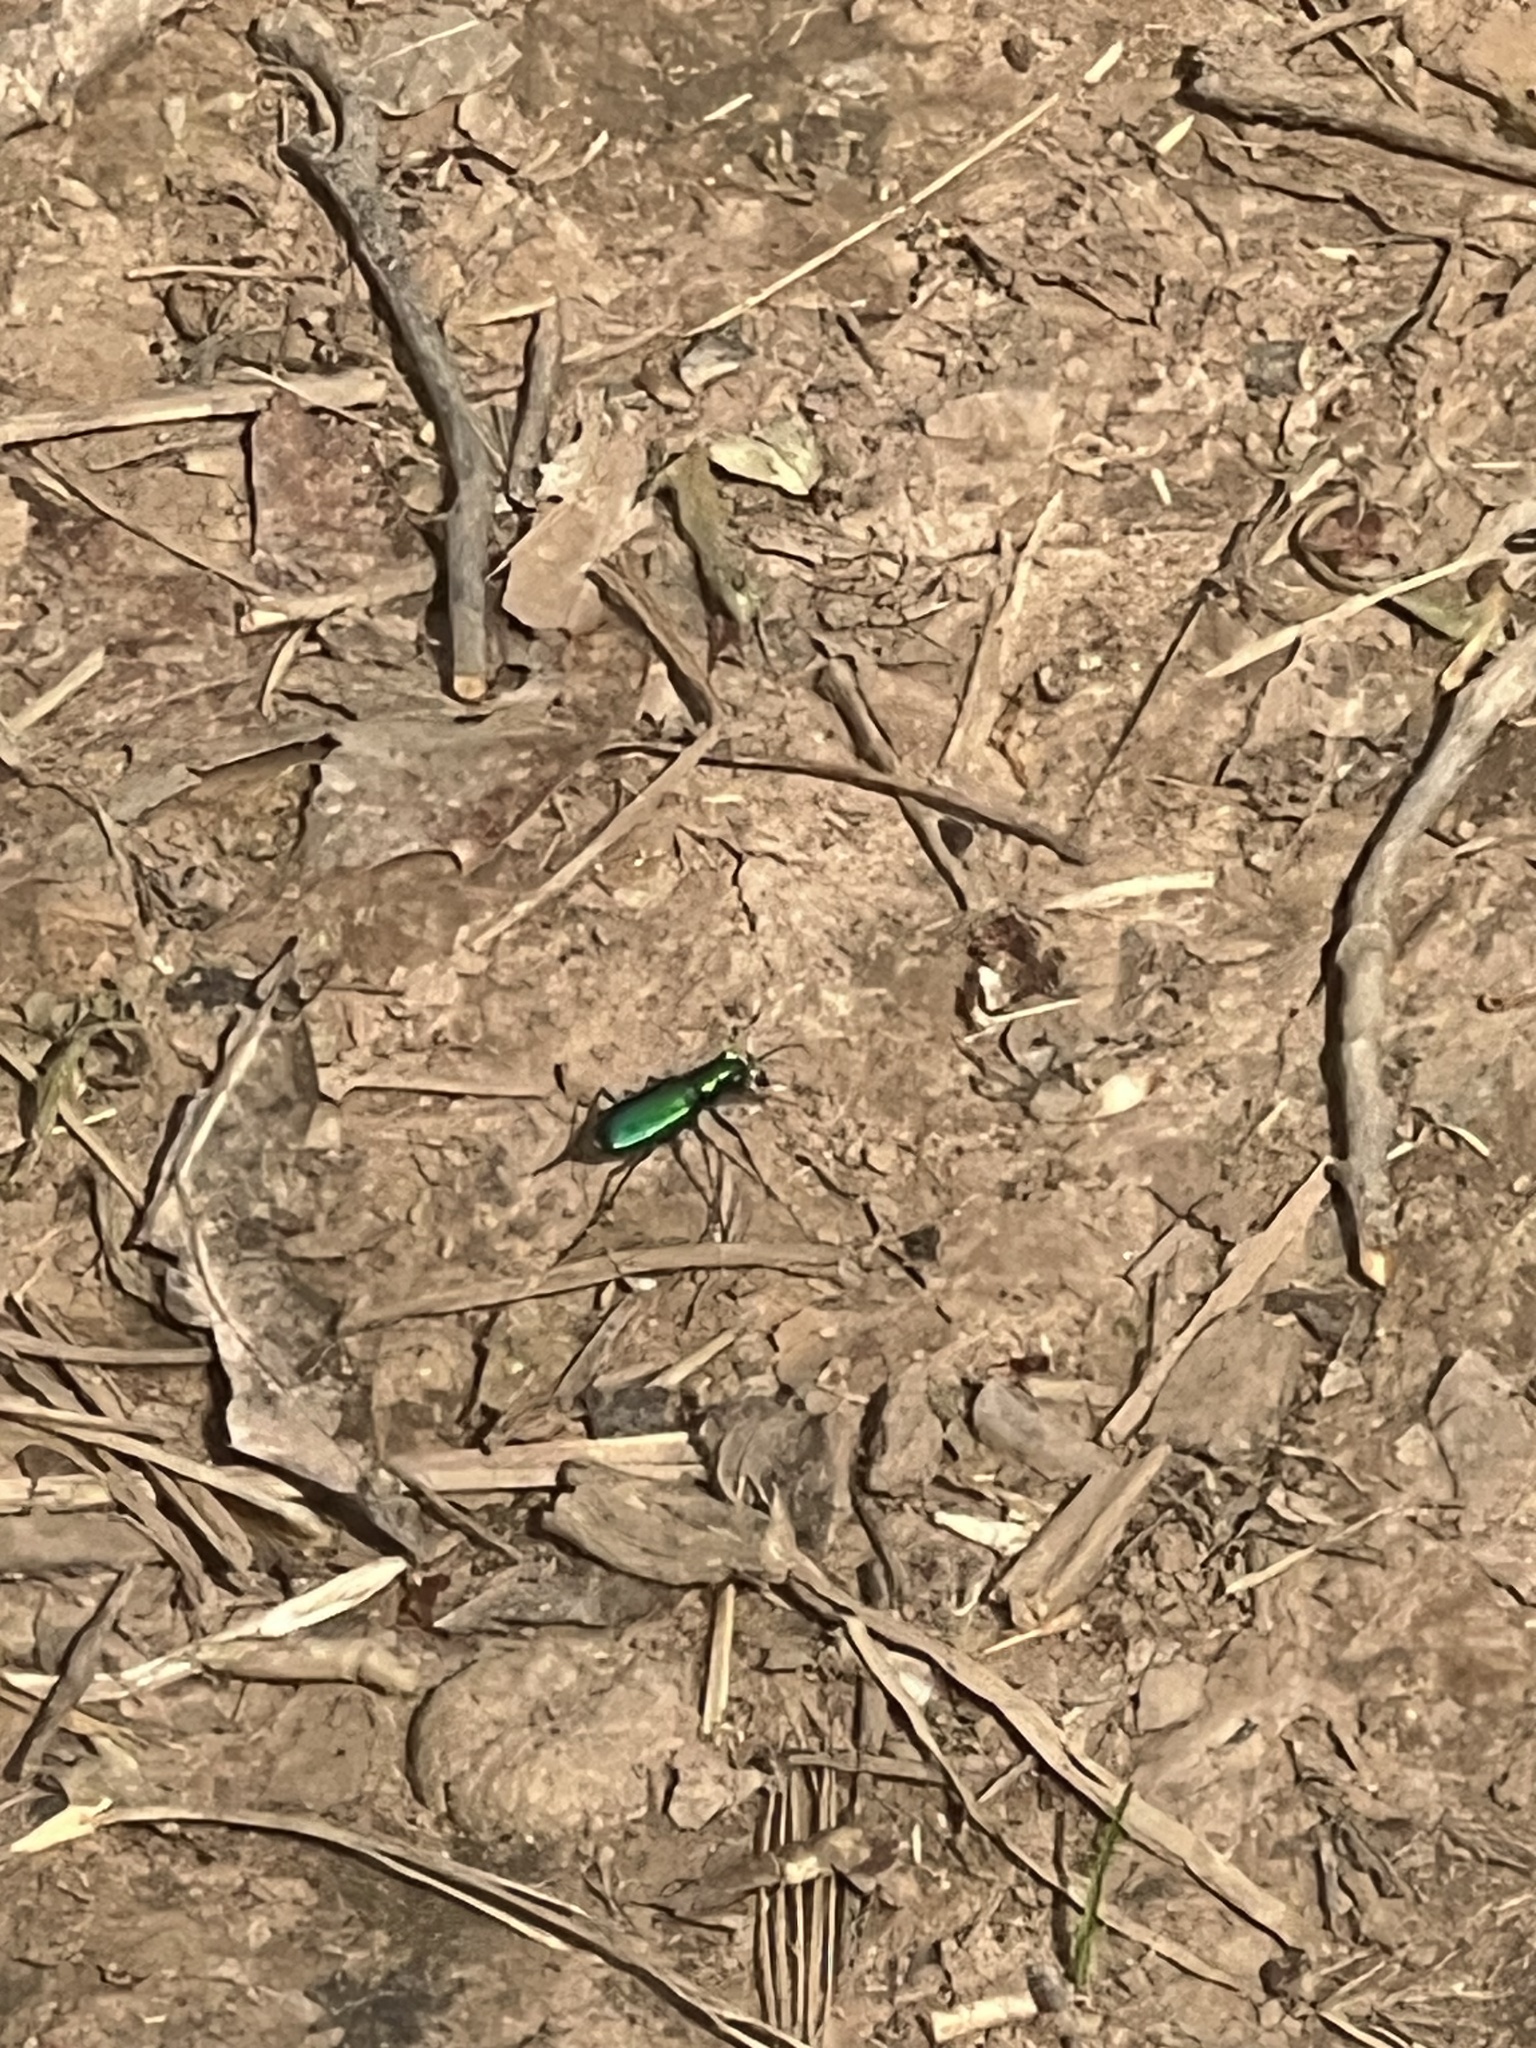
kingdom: Animalia
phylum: Arthropoda
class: Insecta
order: Coleoptera
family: Carabidae
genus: Cicindela
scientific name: Cicindela sexguttata
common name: Six-spotted tiger beetle
